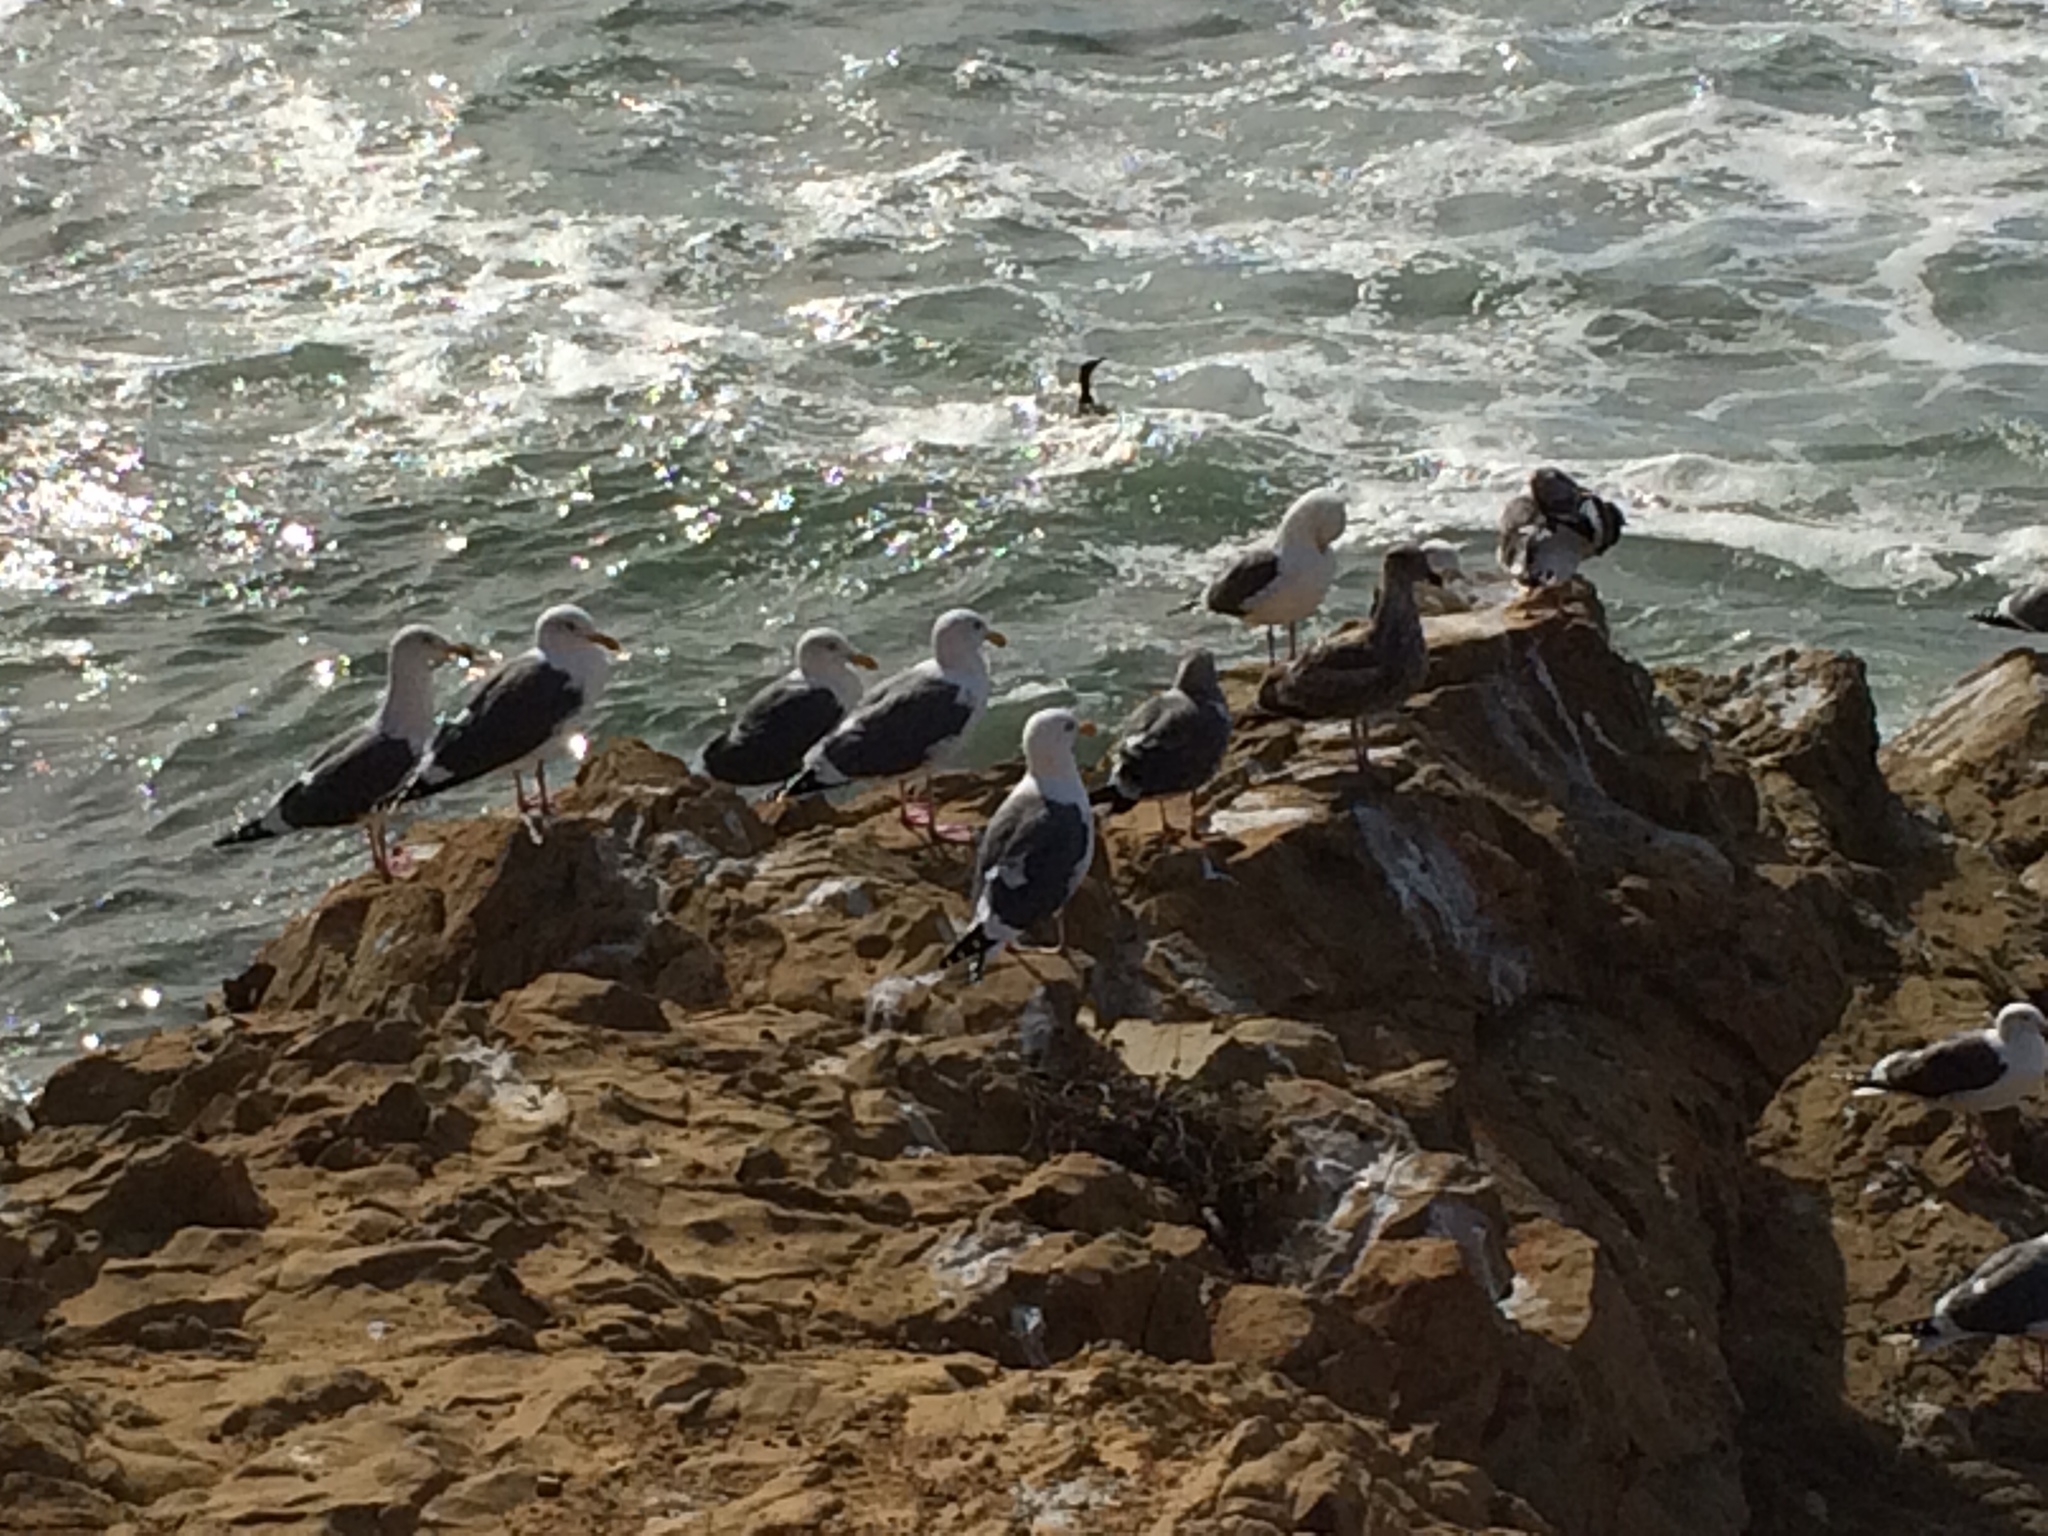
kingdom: Animalia
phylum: Chordata
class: Aves
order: Charadriiformes
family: Laridae
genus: Larus
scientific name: Larus occidentalis
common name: Western gull
